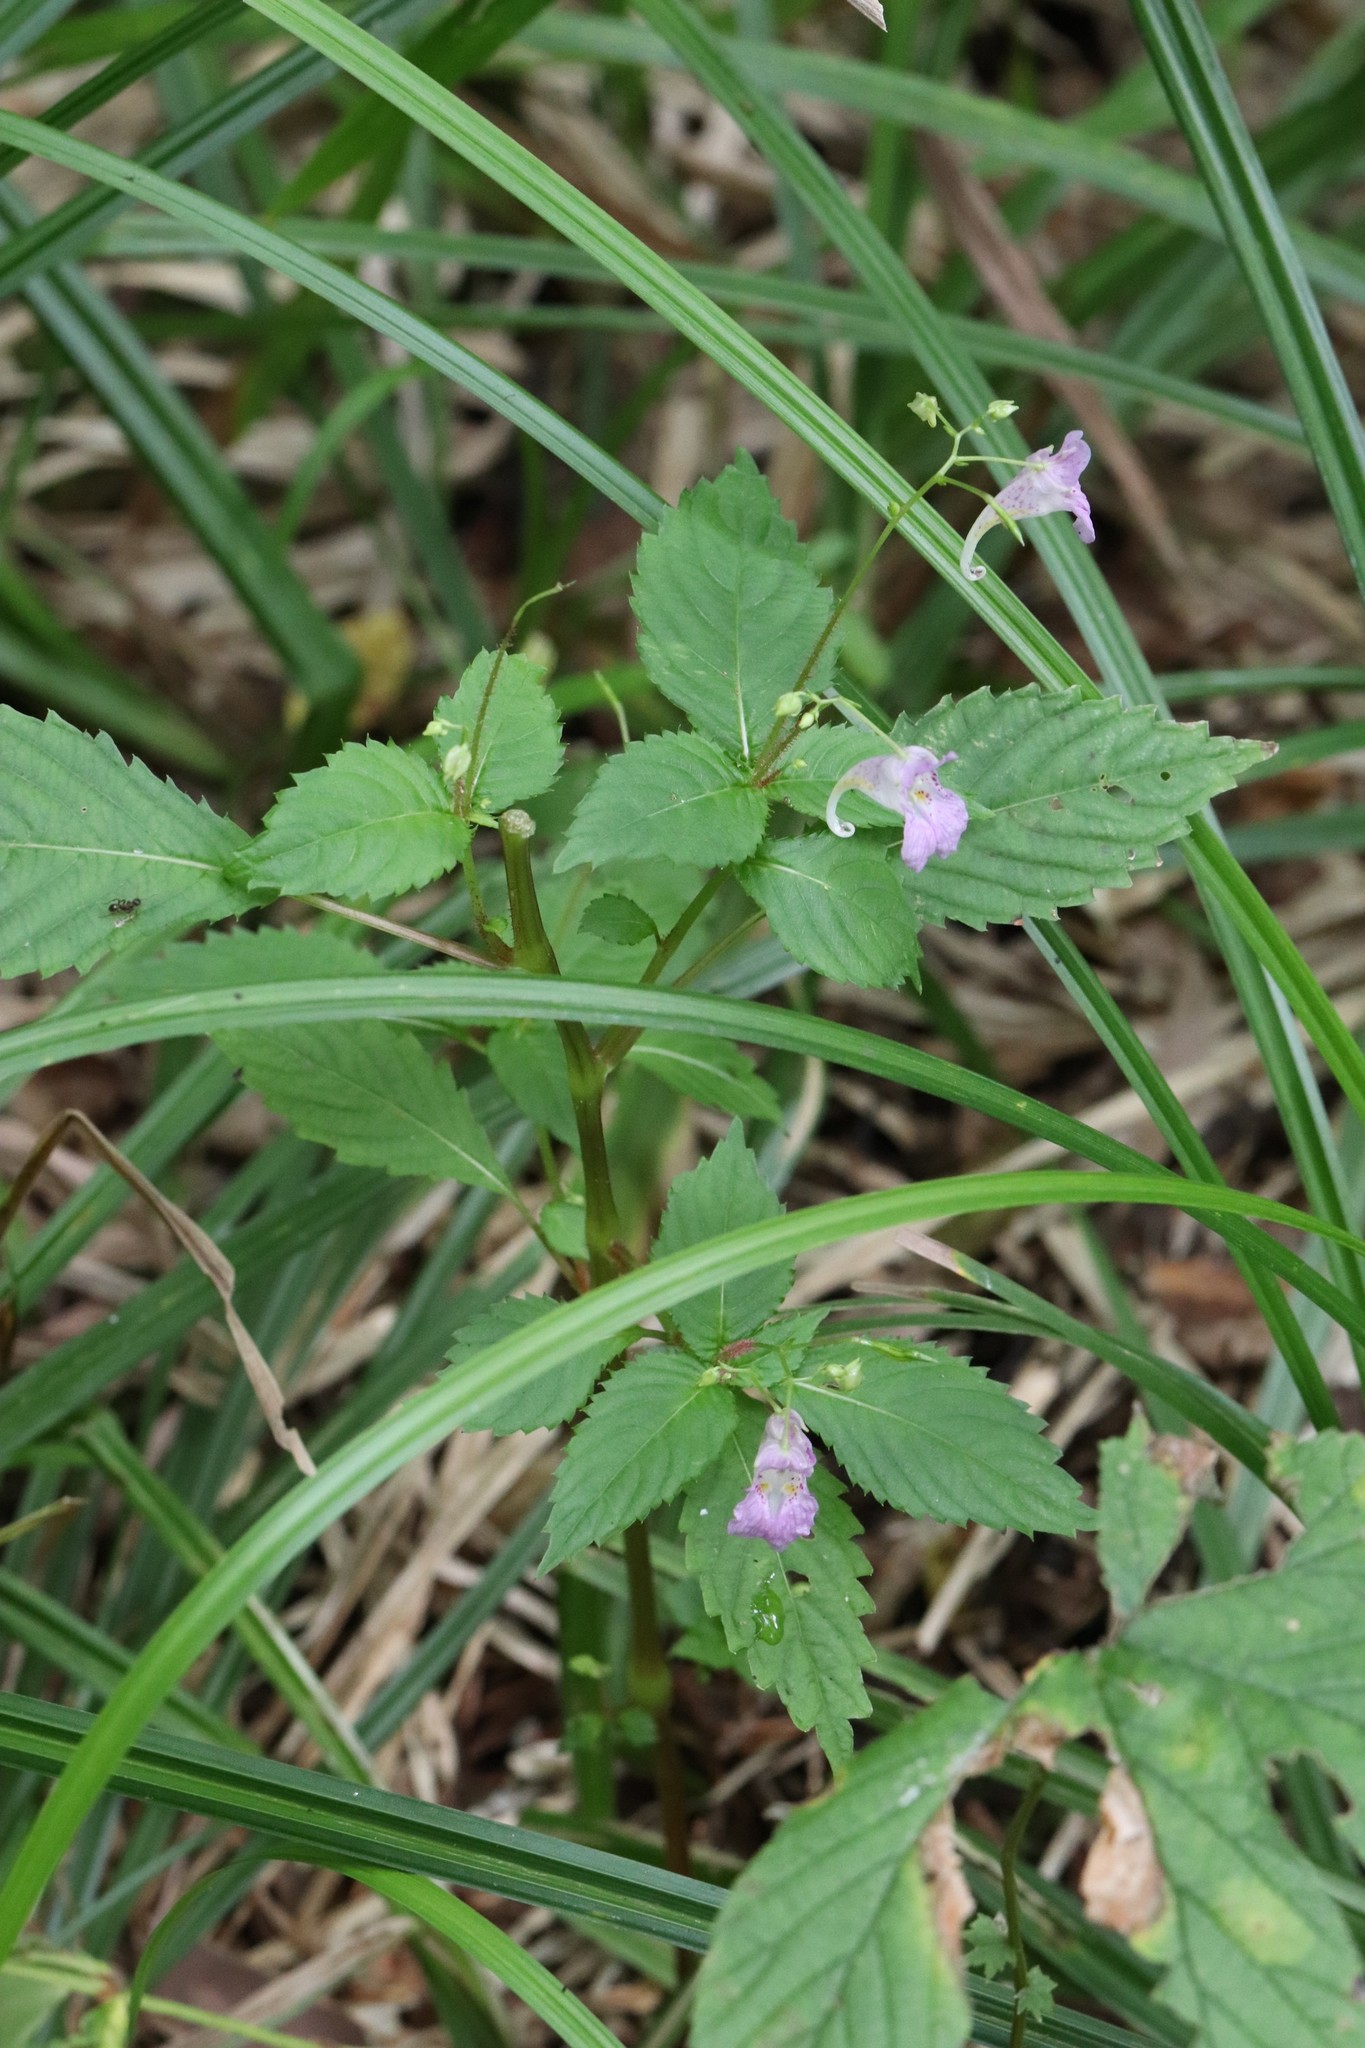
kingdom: Plantae
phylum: Tracheophyta
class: Magnoliopsida
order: Ericales
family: Balsaminaceae
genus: Impatiens
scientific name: Impatiens furcillata
